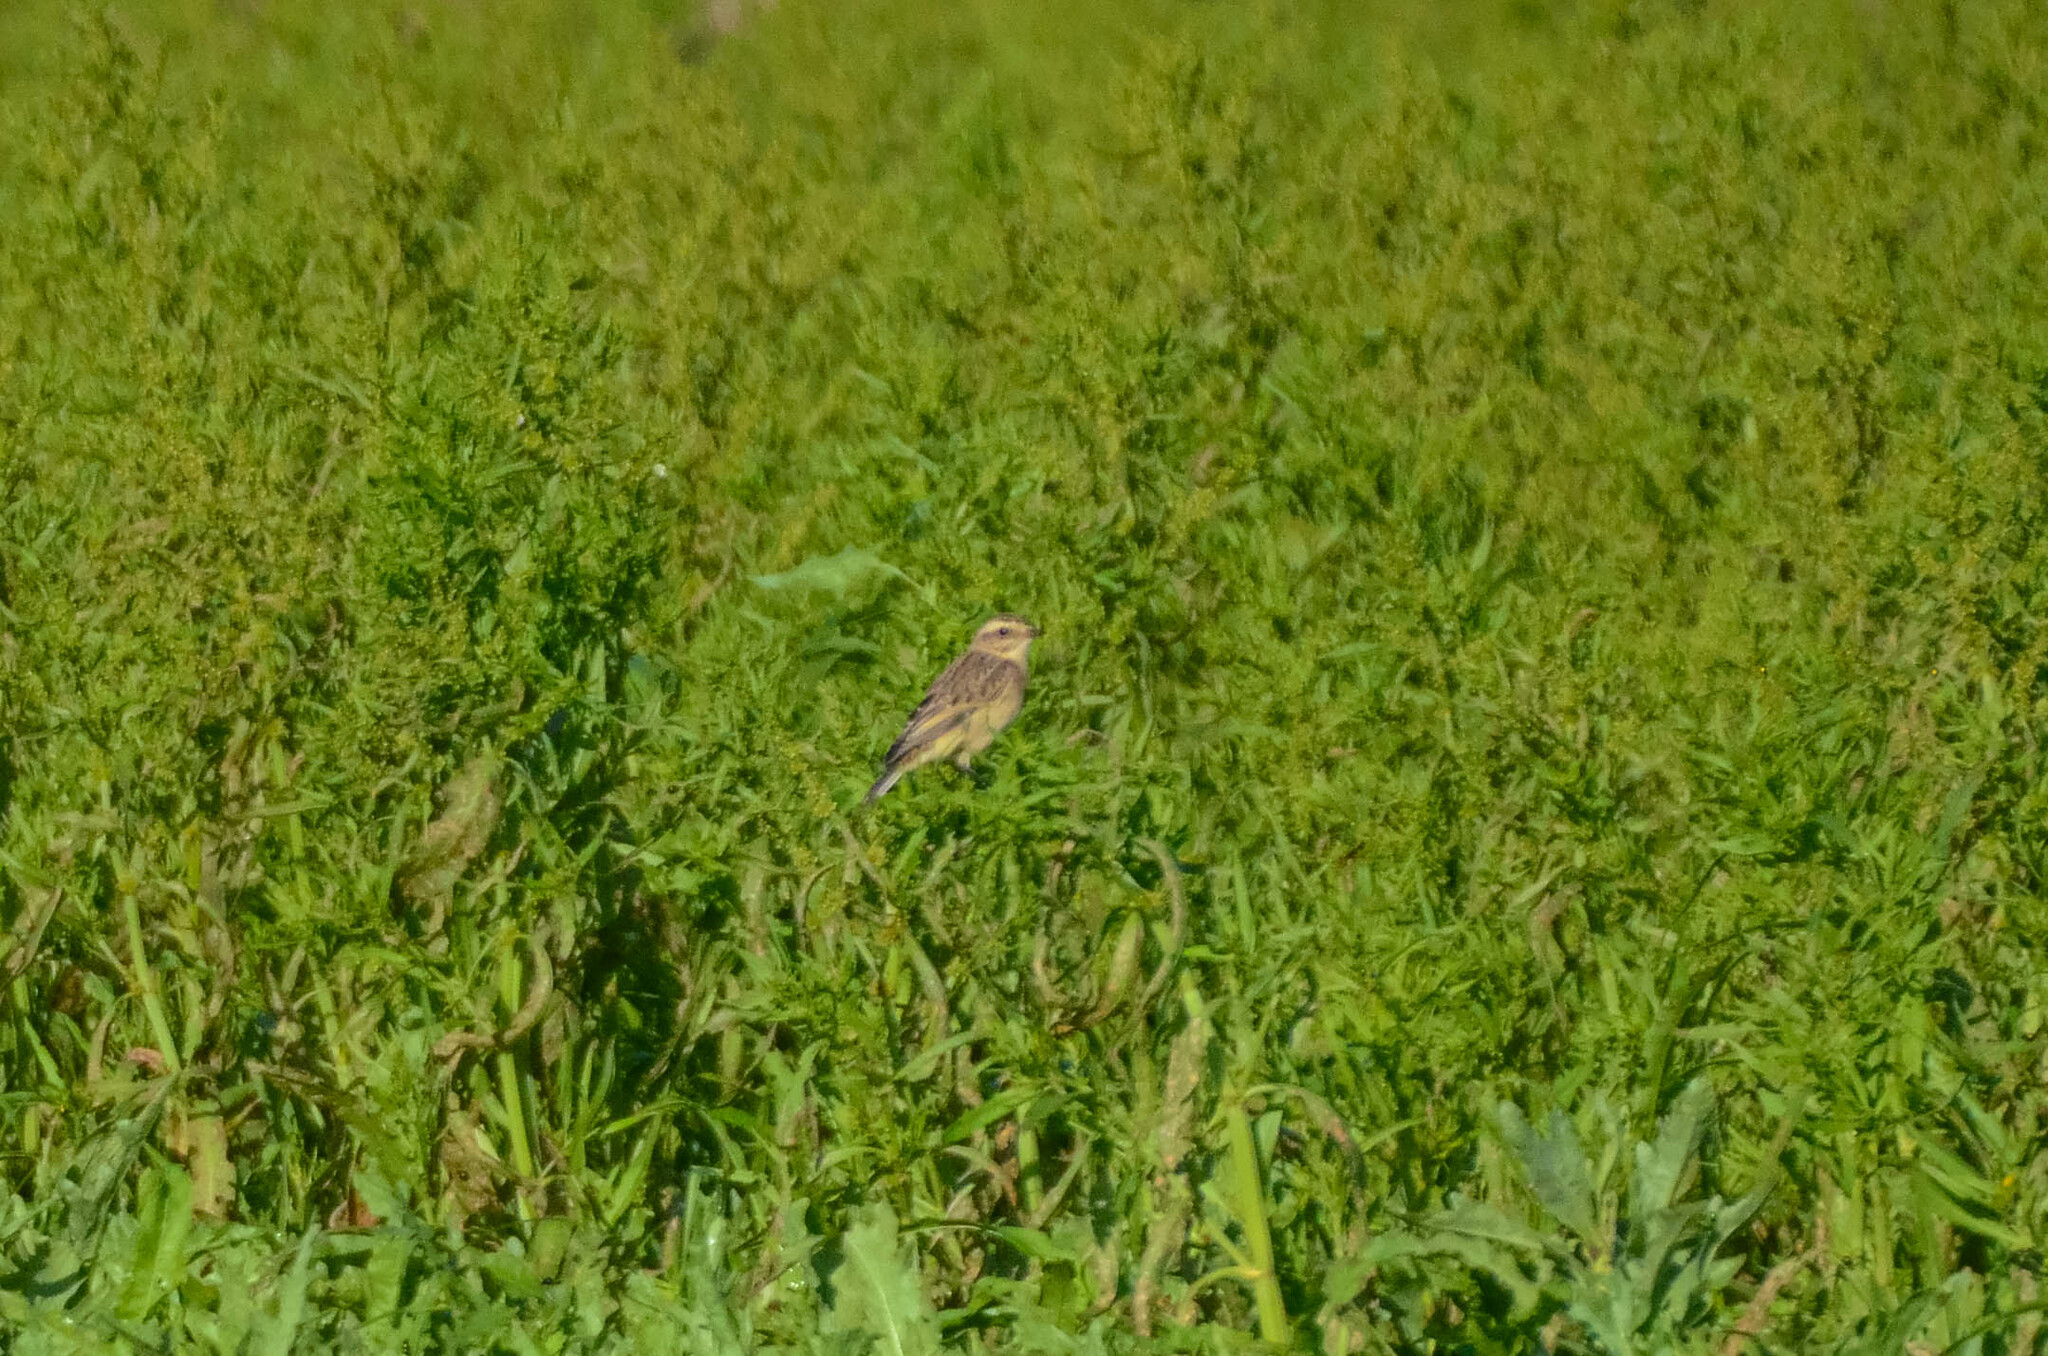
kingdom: Animalia
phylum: Chordata
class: Aves
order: Passeriformes
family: Muscicapidae
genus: Saxicola
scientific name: Saxicola rubetra
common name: Whinchat
